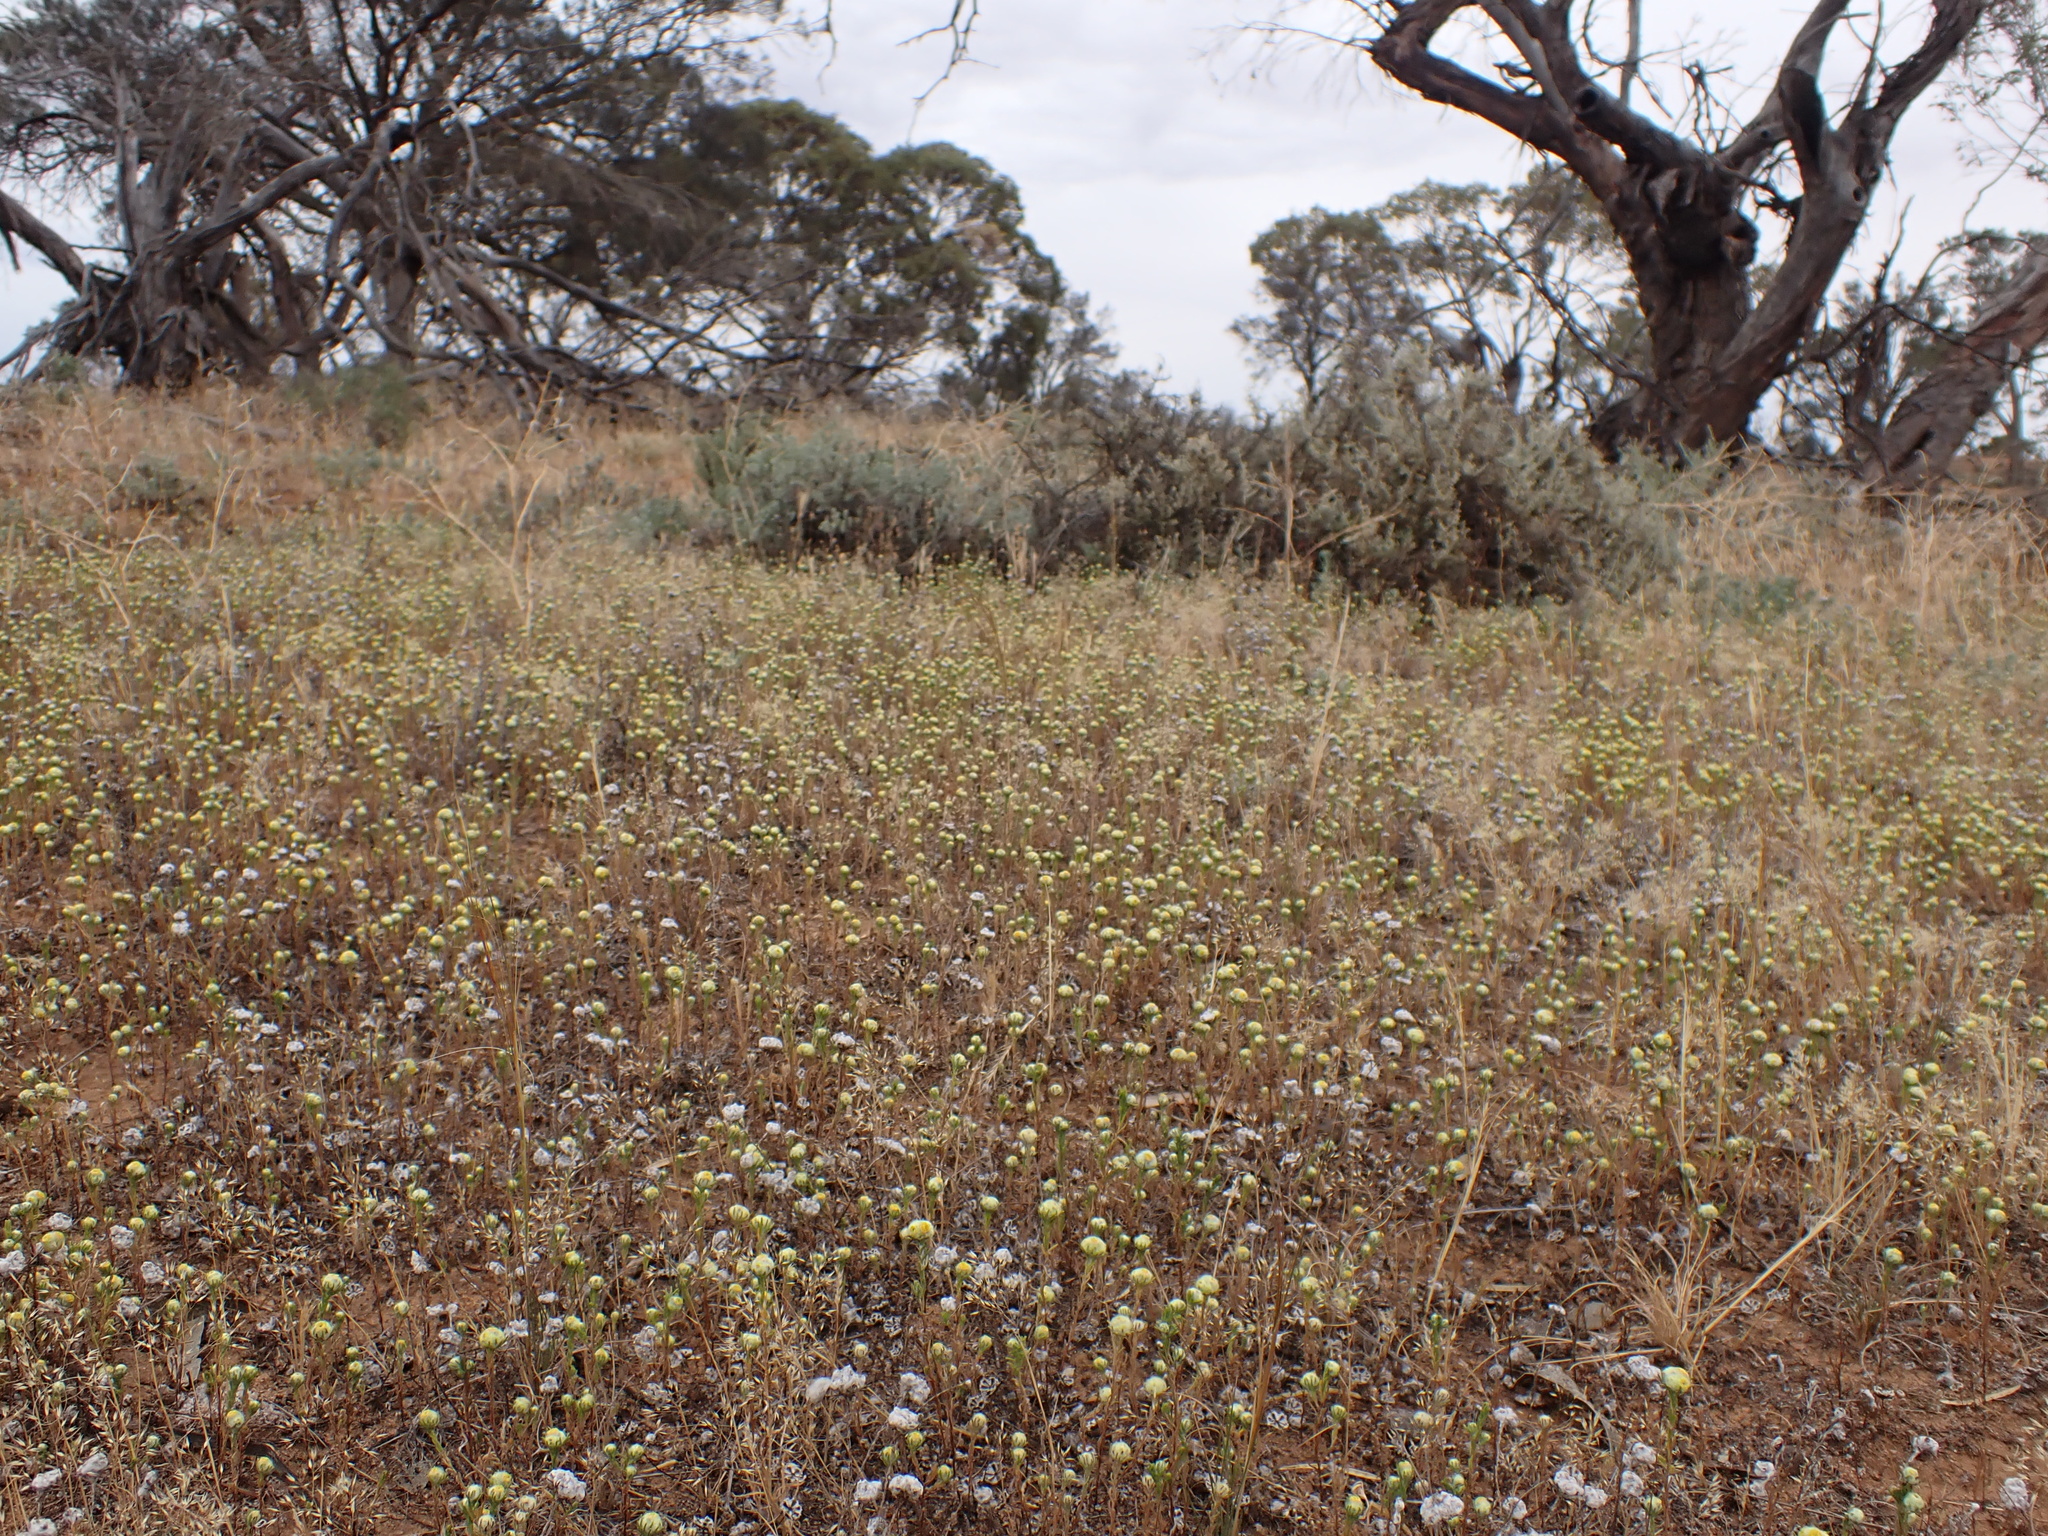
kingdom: Plantae
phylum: Tracheophyta
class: Magnoliopsida
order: Asterales
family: Asteraceae
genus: Eriochlamys
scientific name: Eriochlamys behrii
